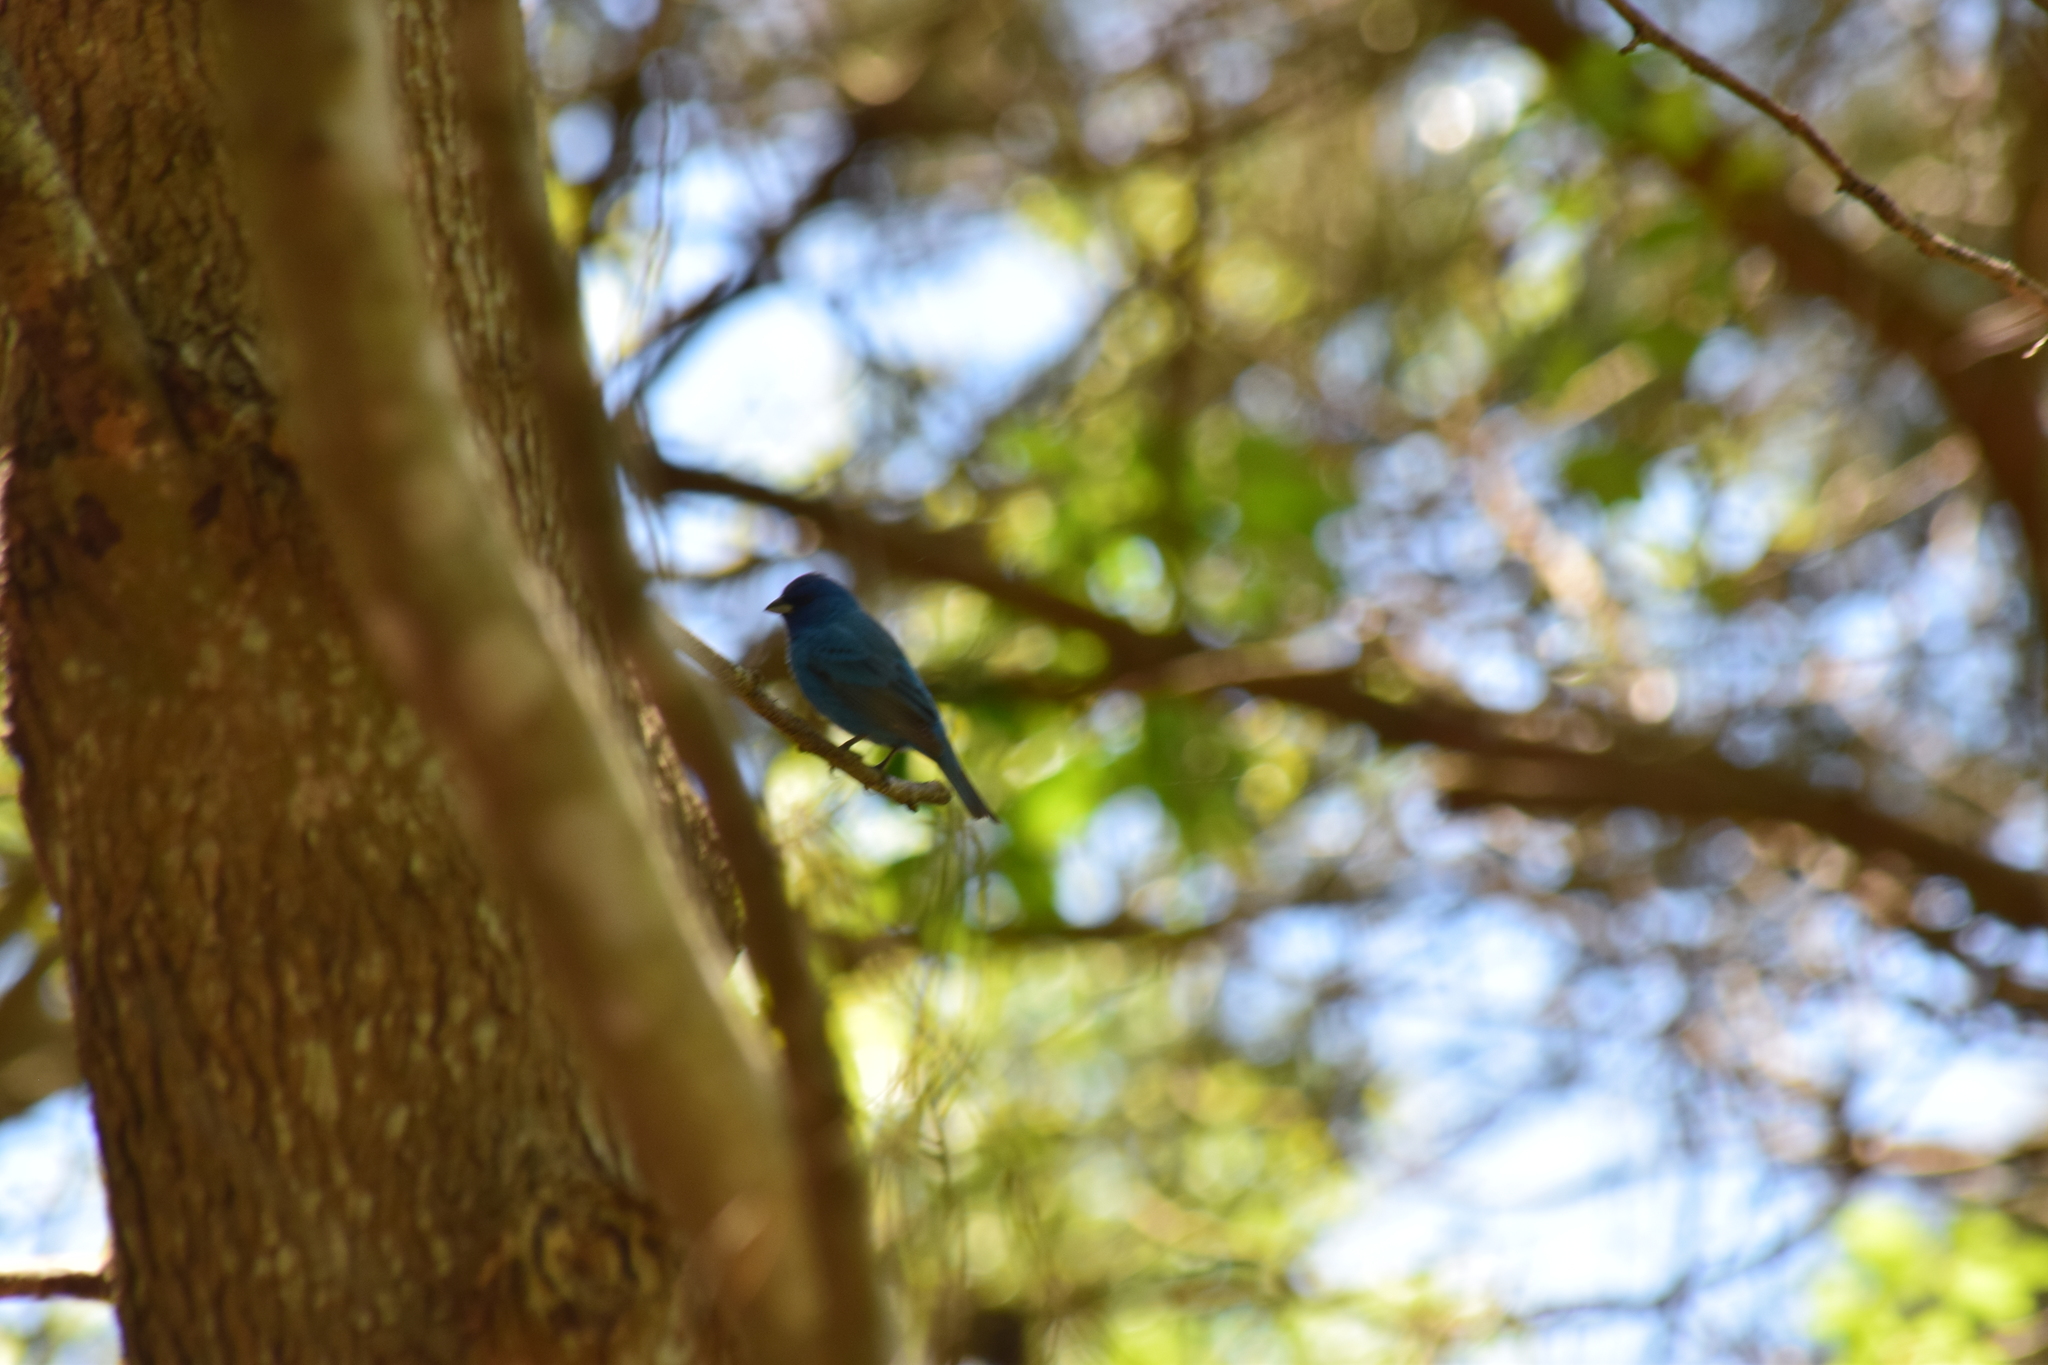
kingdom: Animalia
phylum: Chordata
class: Aves
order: Passeriformes
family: Cardinalidae
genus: Passerina
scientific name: Passerina cyanea
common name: Indigo bunting
